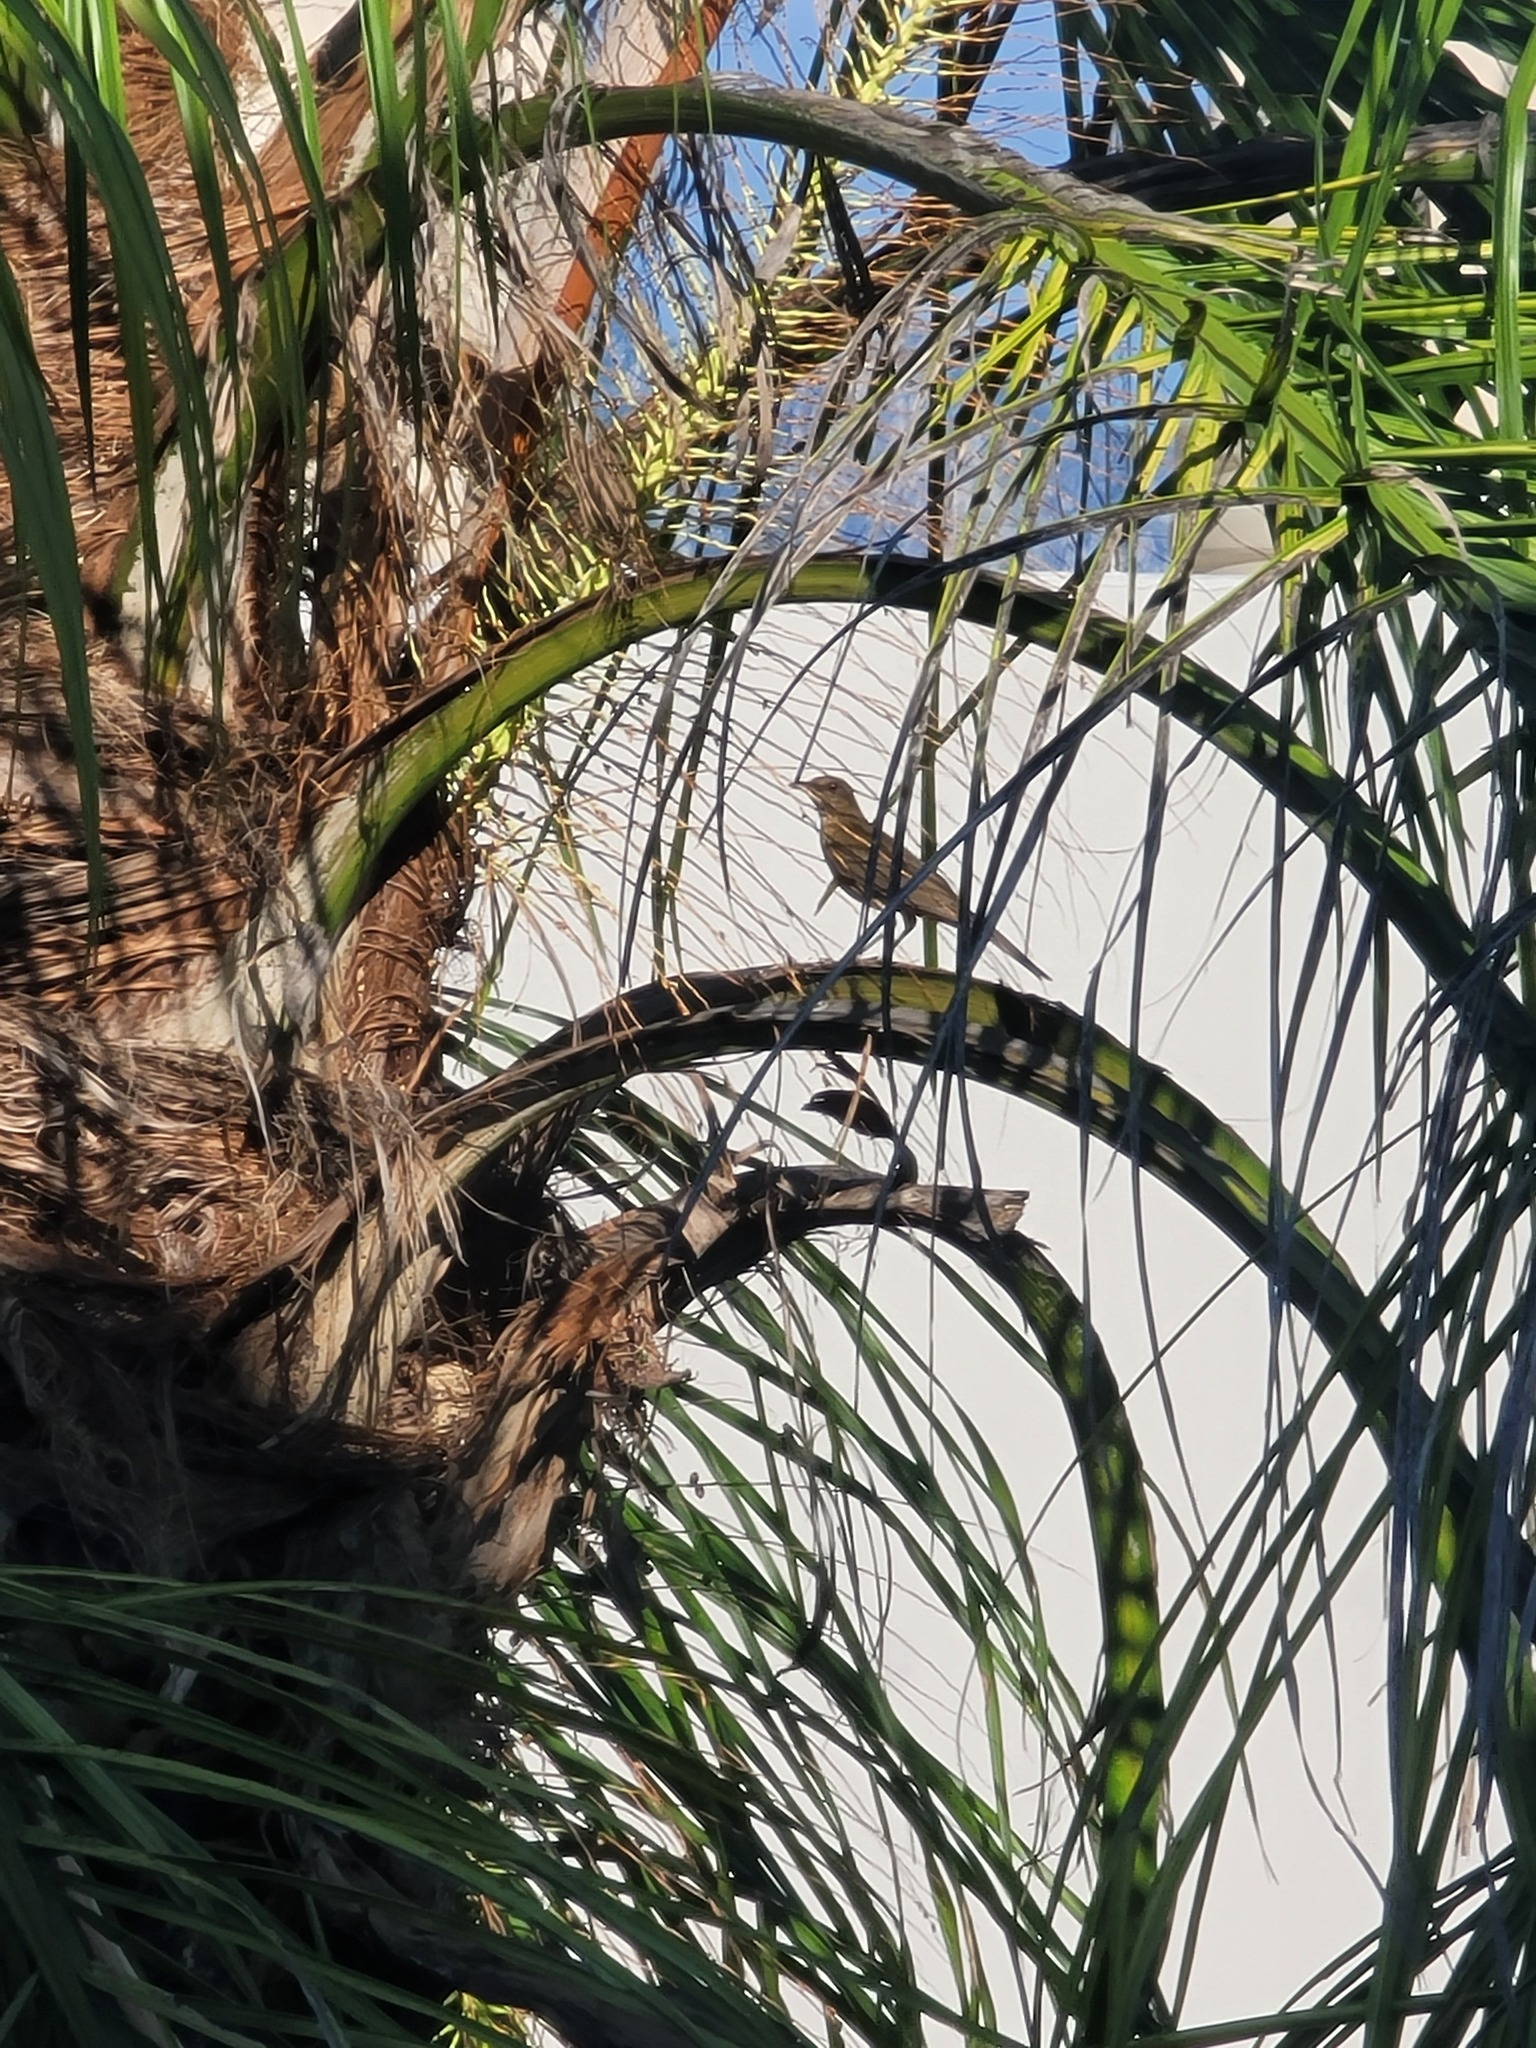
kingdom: Animalia
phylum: Chordata
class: Aves
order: Passeriformes
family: Turdidae
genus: Turdus
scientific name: Turdus grayi
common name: Clay-colored thrush
